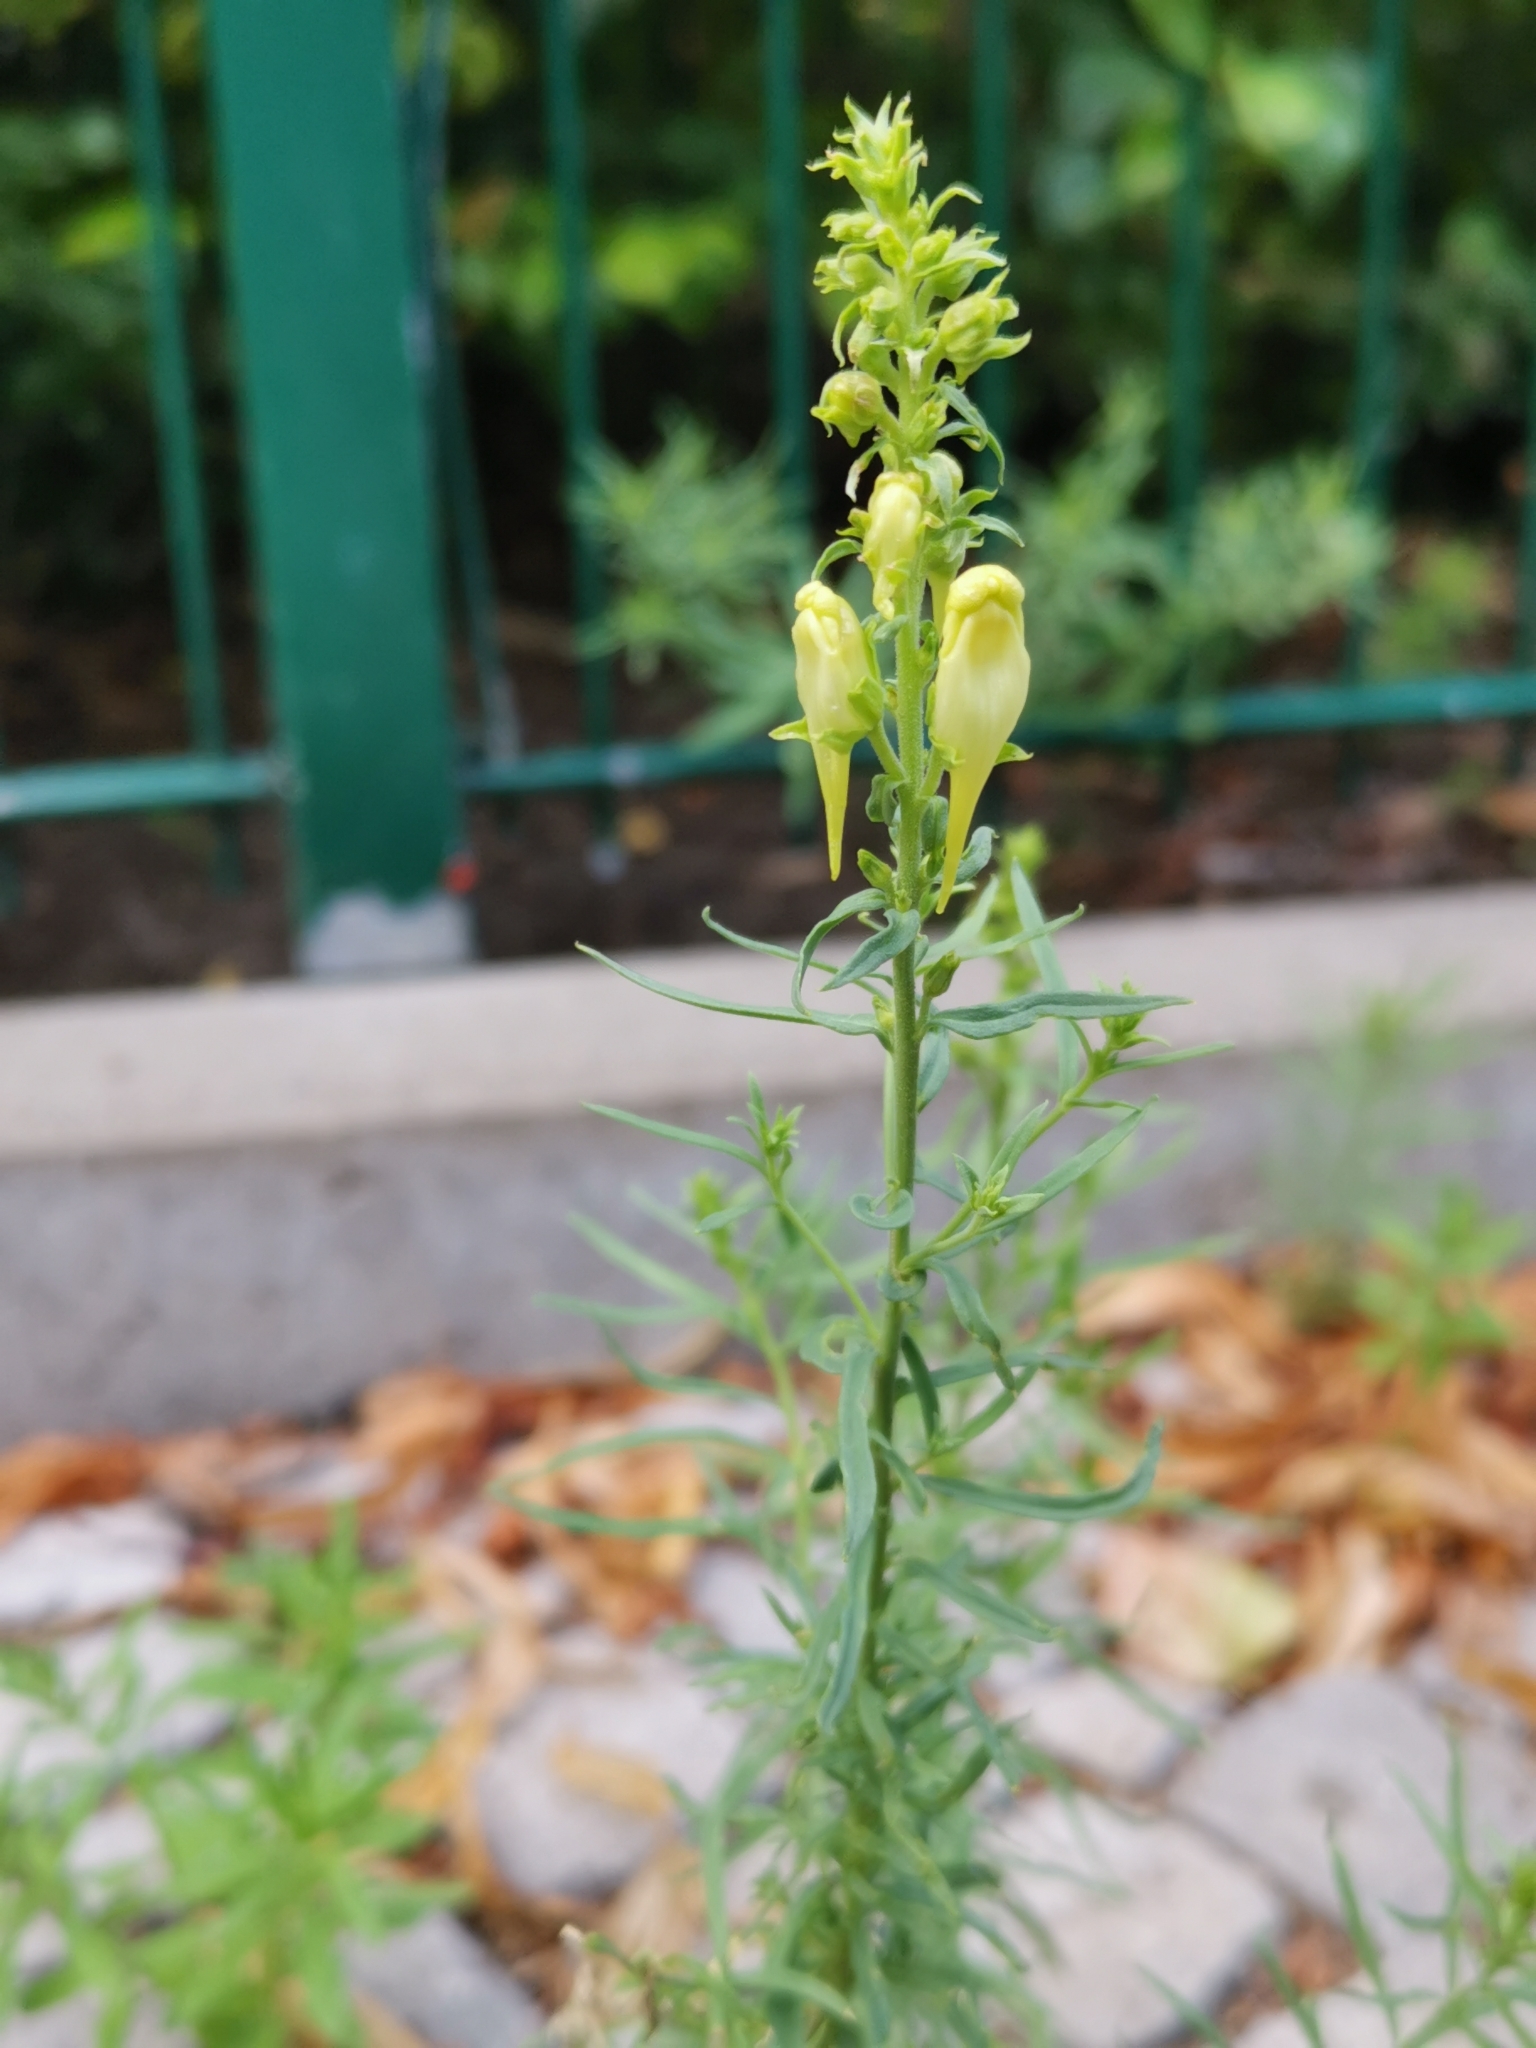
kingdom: Plantae
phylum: Tracheophyta
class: Magnoliopsida
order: Lamiales
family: Plantaginaceae
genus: Linaria
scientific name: Linaria vulgaris
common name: Butter and eggs
